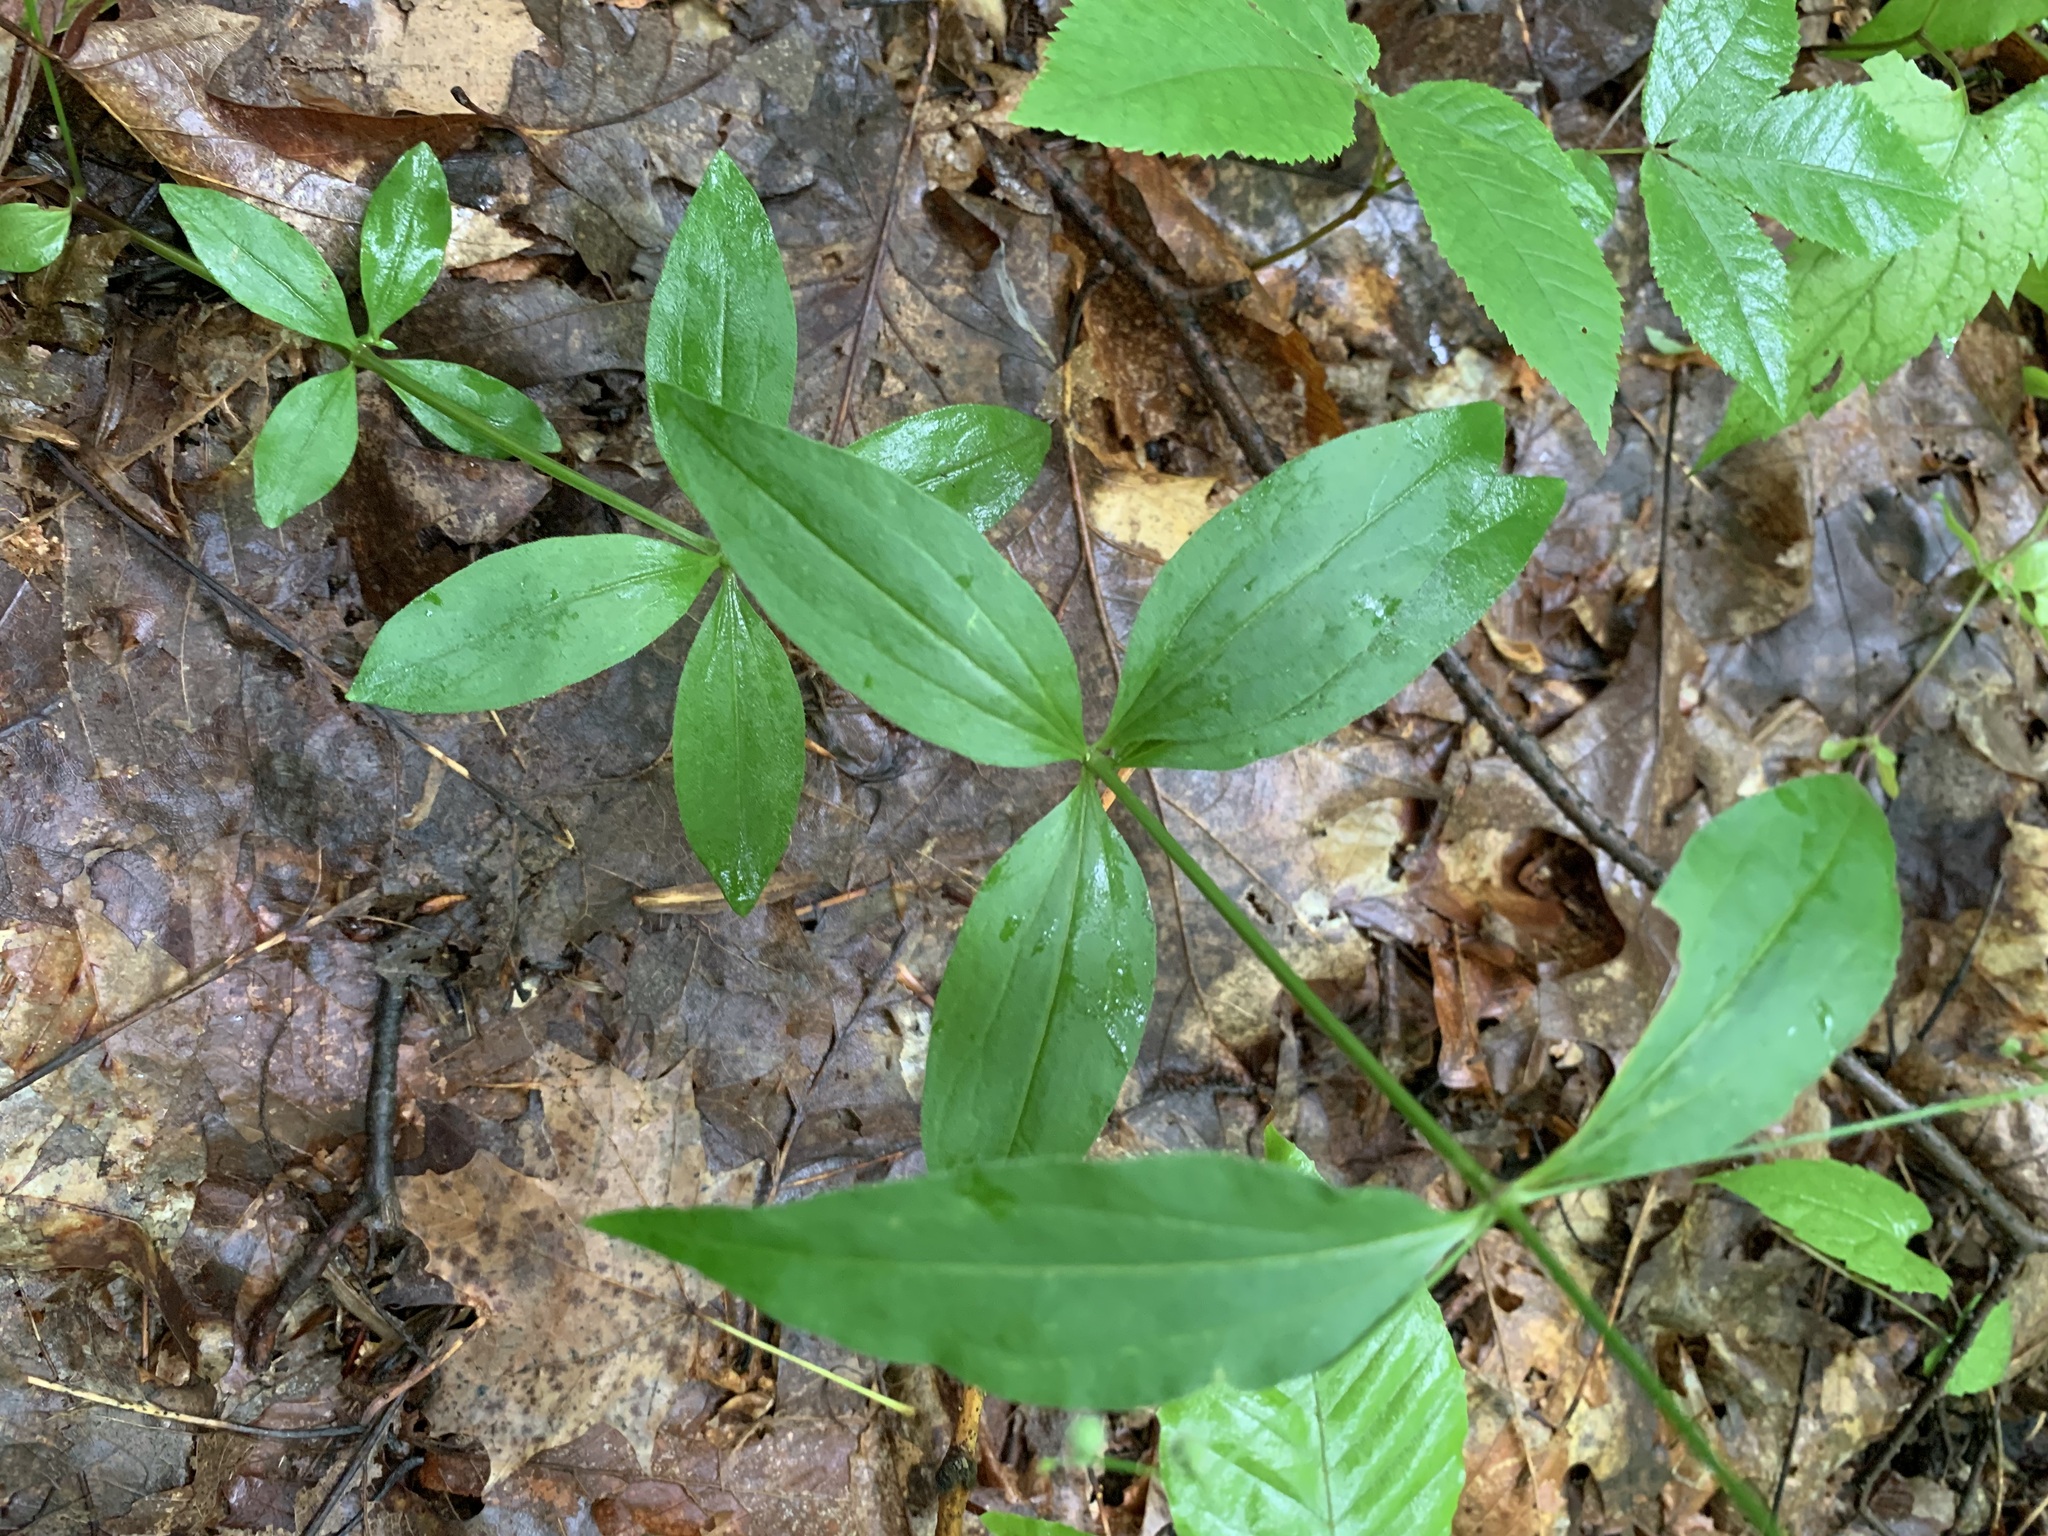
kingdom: Plantae
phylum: Tracheophyta
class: Magnoliopsida
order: Gentianales
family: Rubiaceae
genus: Galium
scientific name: Galium lanceolatum
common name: Lance-leaved wild licorice
